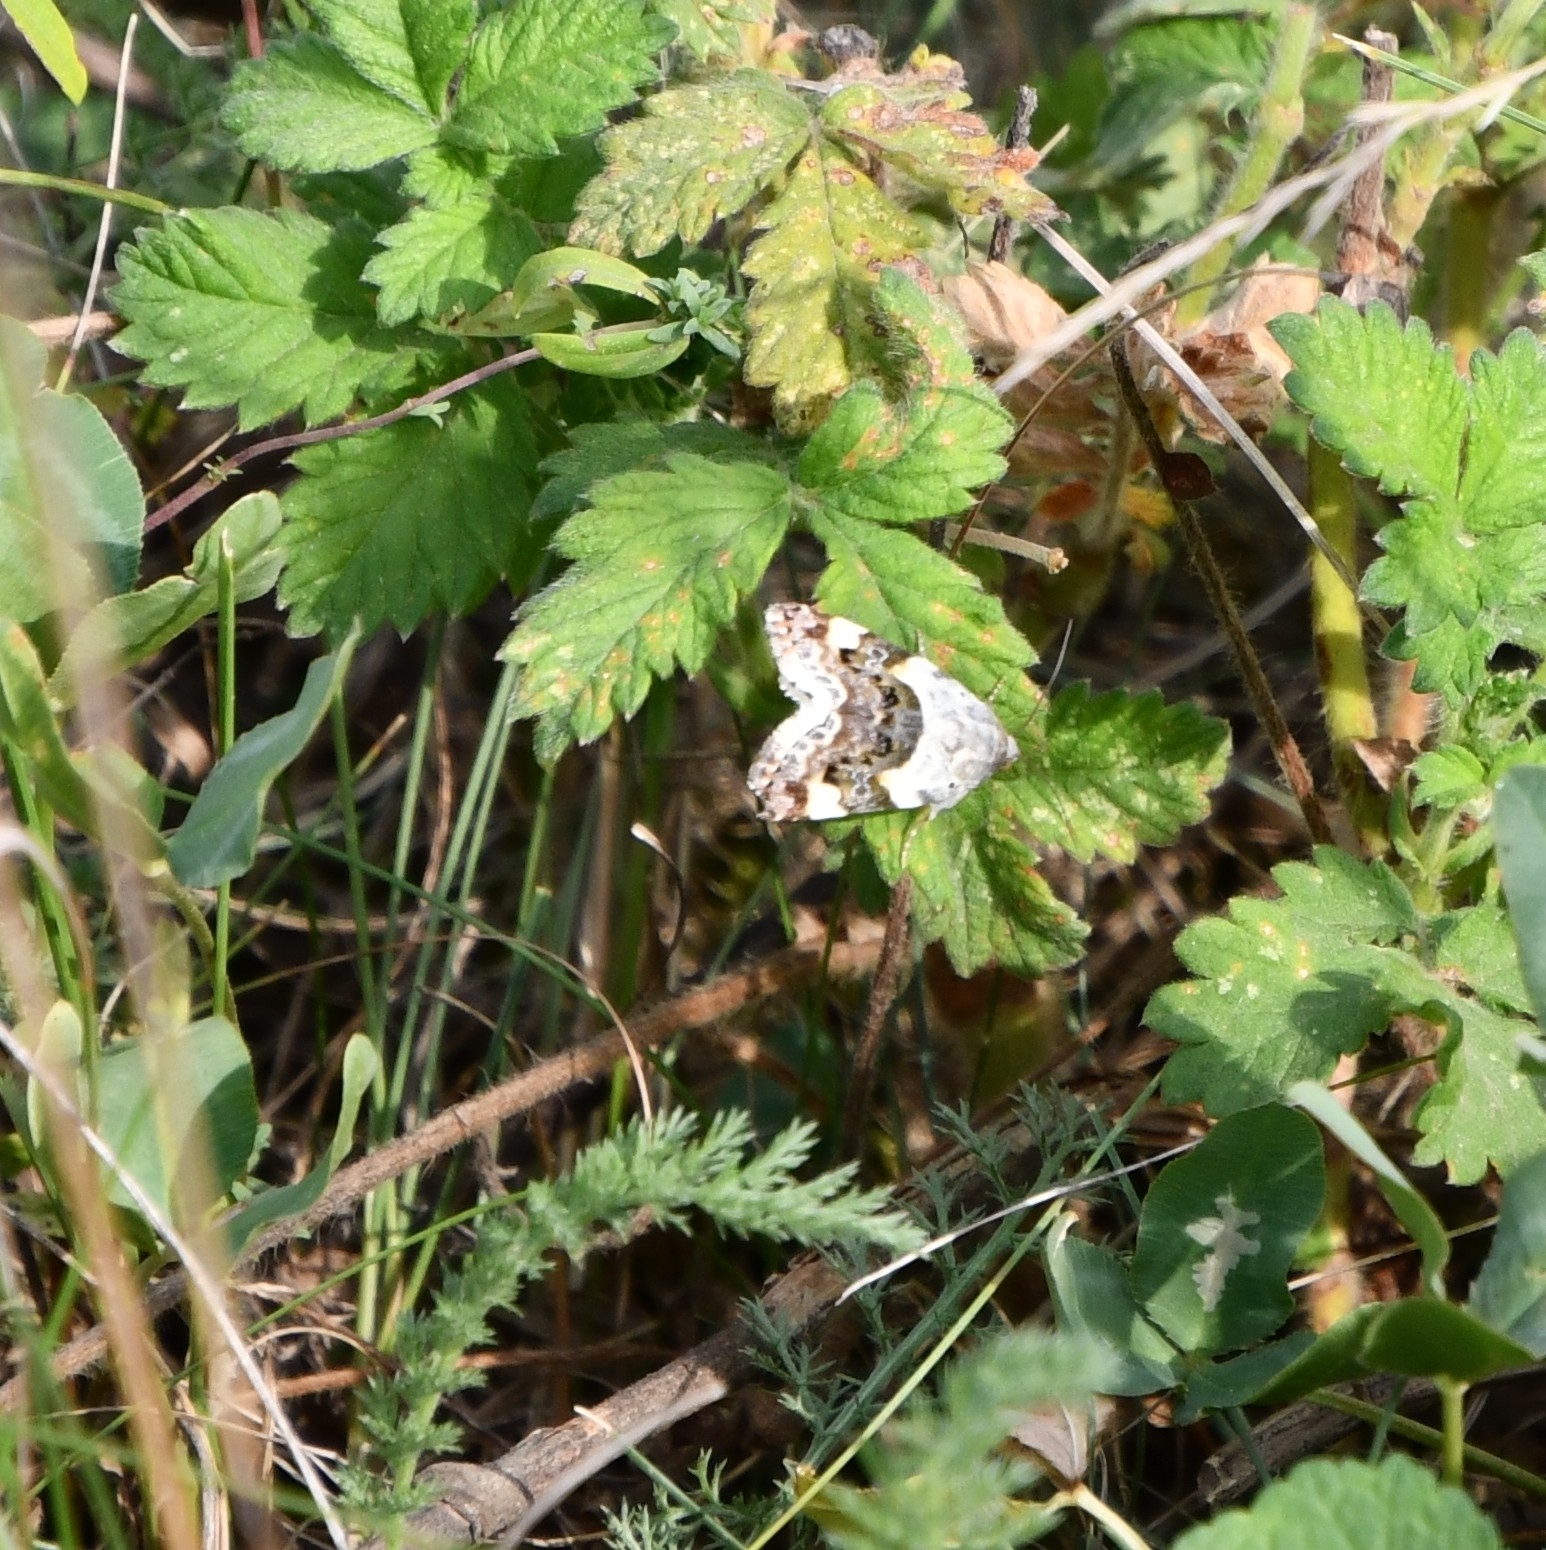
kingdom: Animalia
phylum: Arthropoda
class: Insecta
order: Lepidoptera
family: Noctuidae
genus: Acontia
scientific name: Acontia lucida
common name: Pale shoulder
